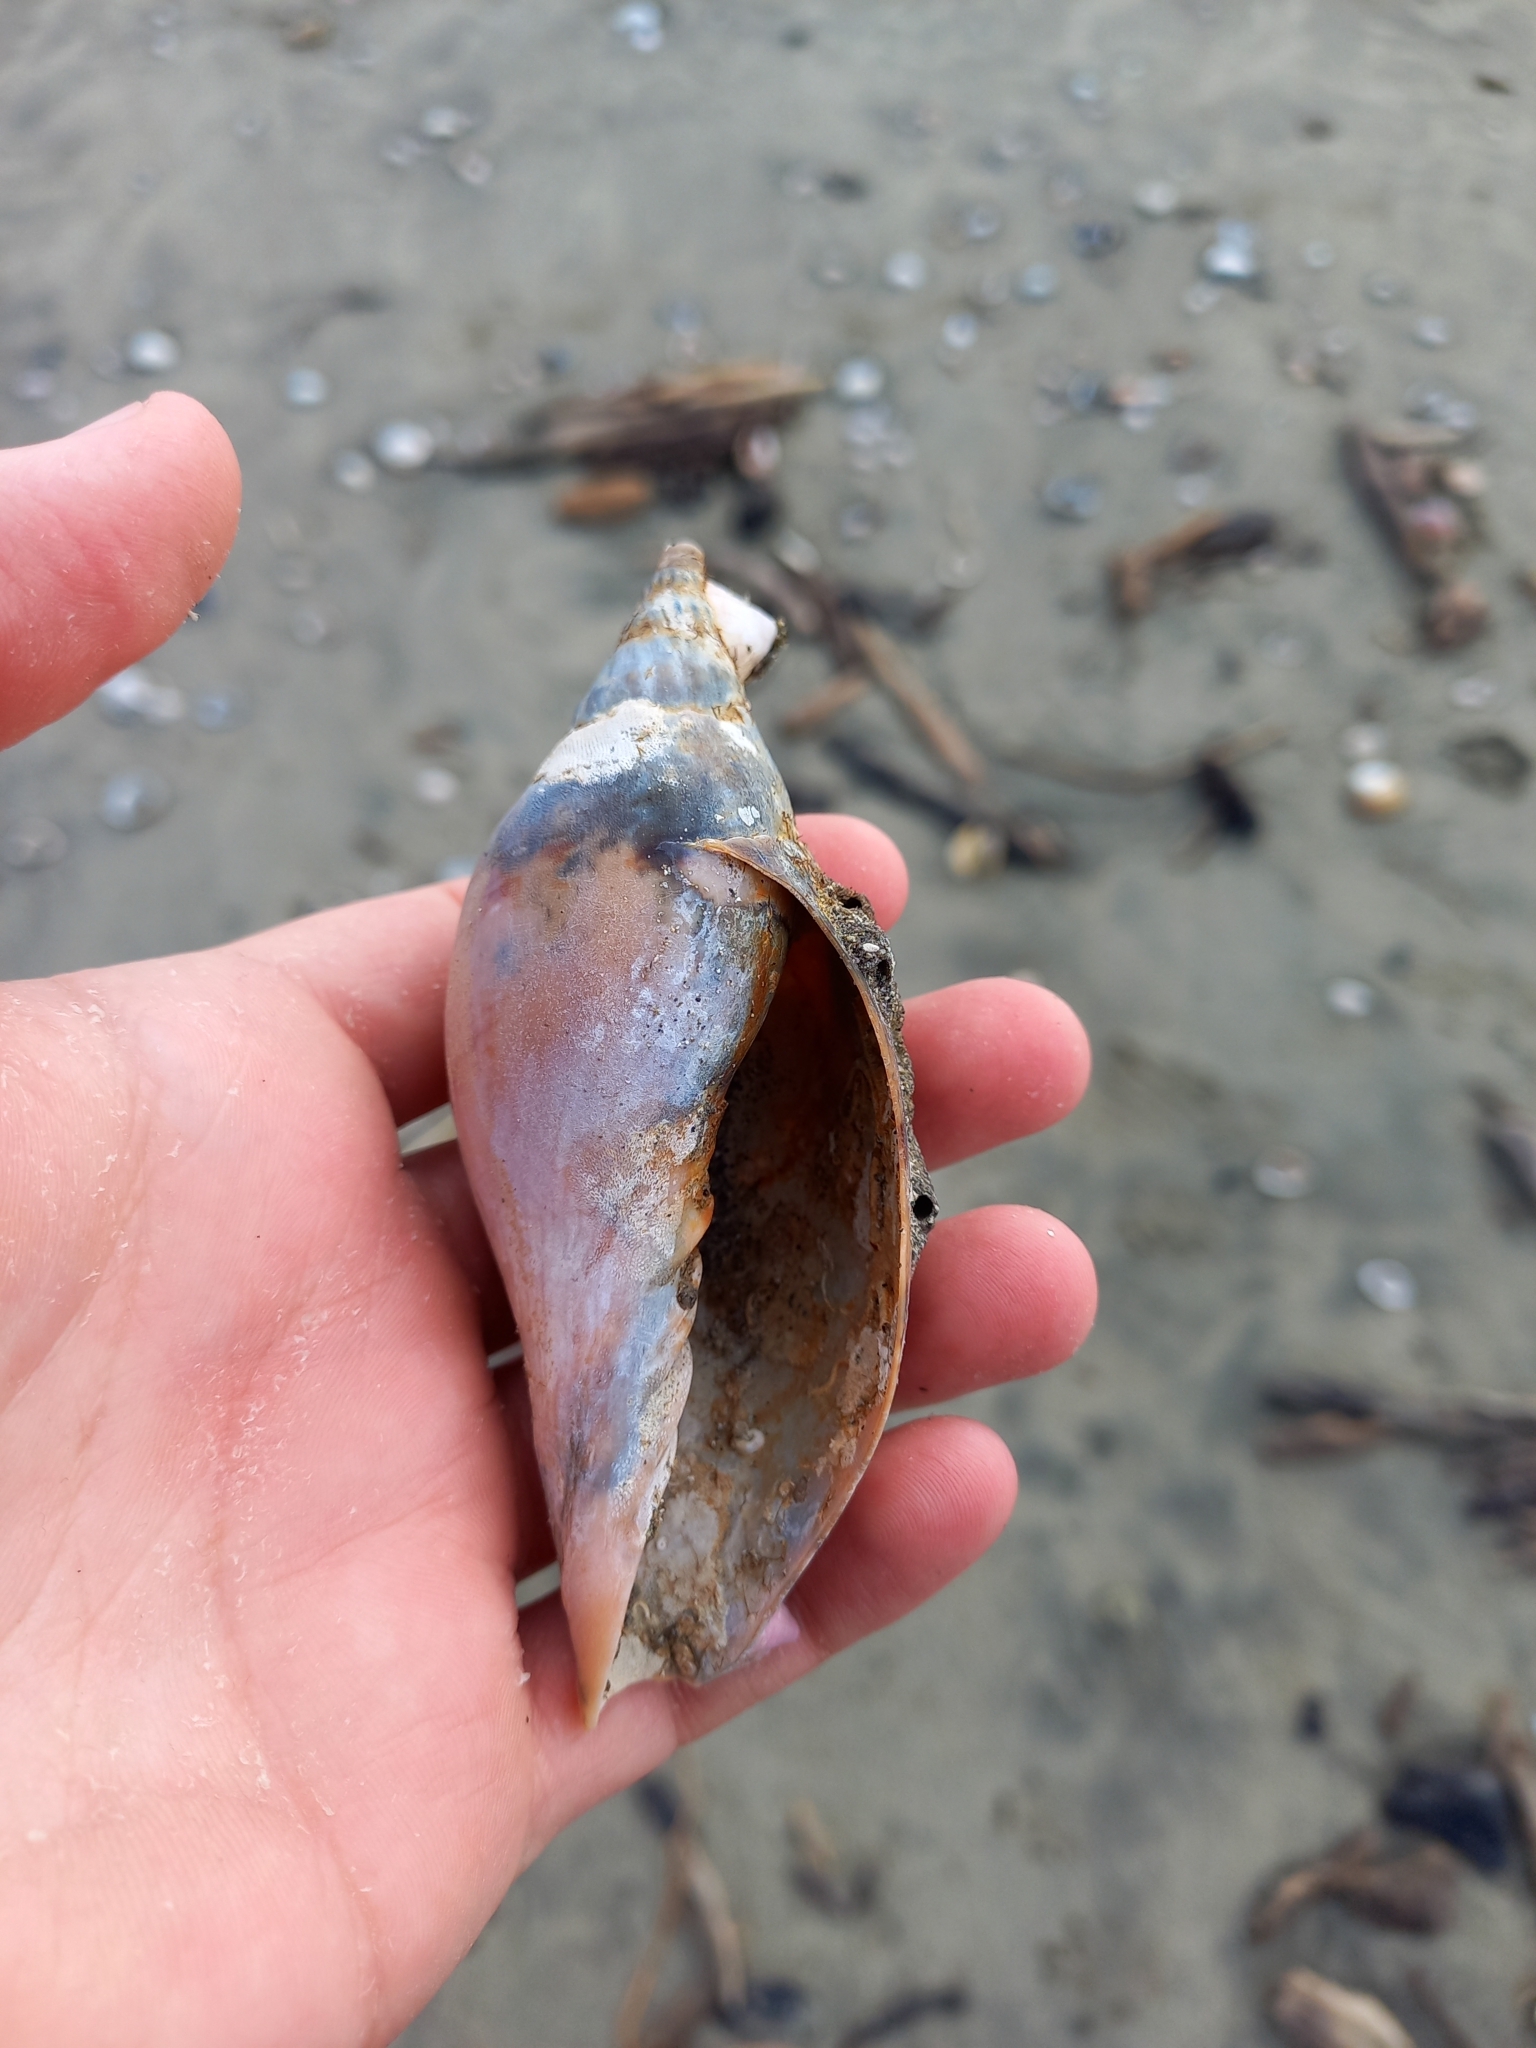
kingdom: Animalia
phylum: Mollusca
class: Gastropoda
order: Neogastropoda
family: Volutidae
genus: Alcithoe
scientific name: Alcithoe arabica
